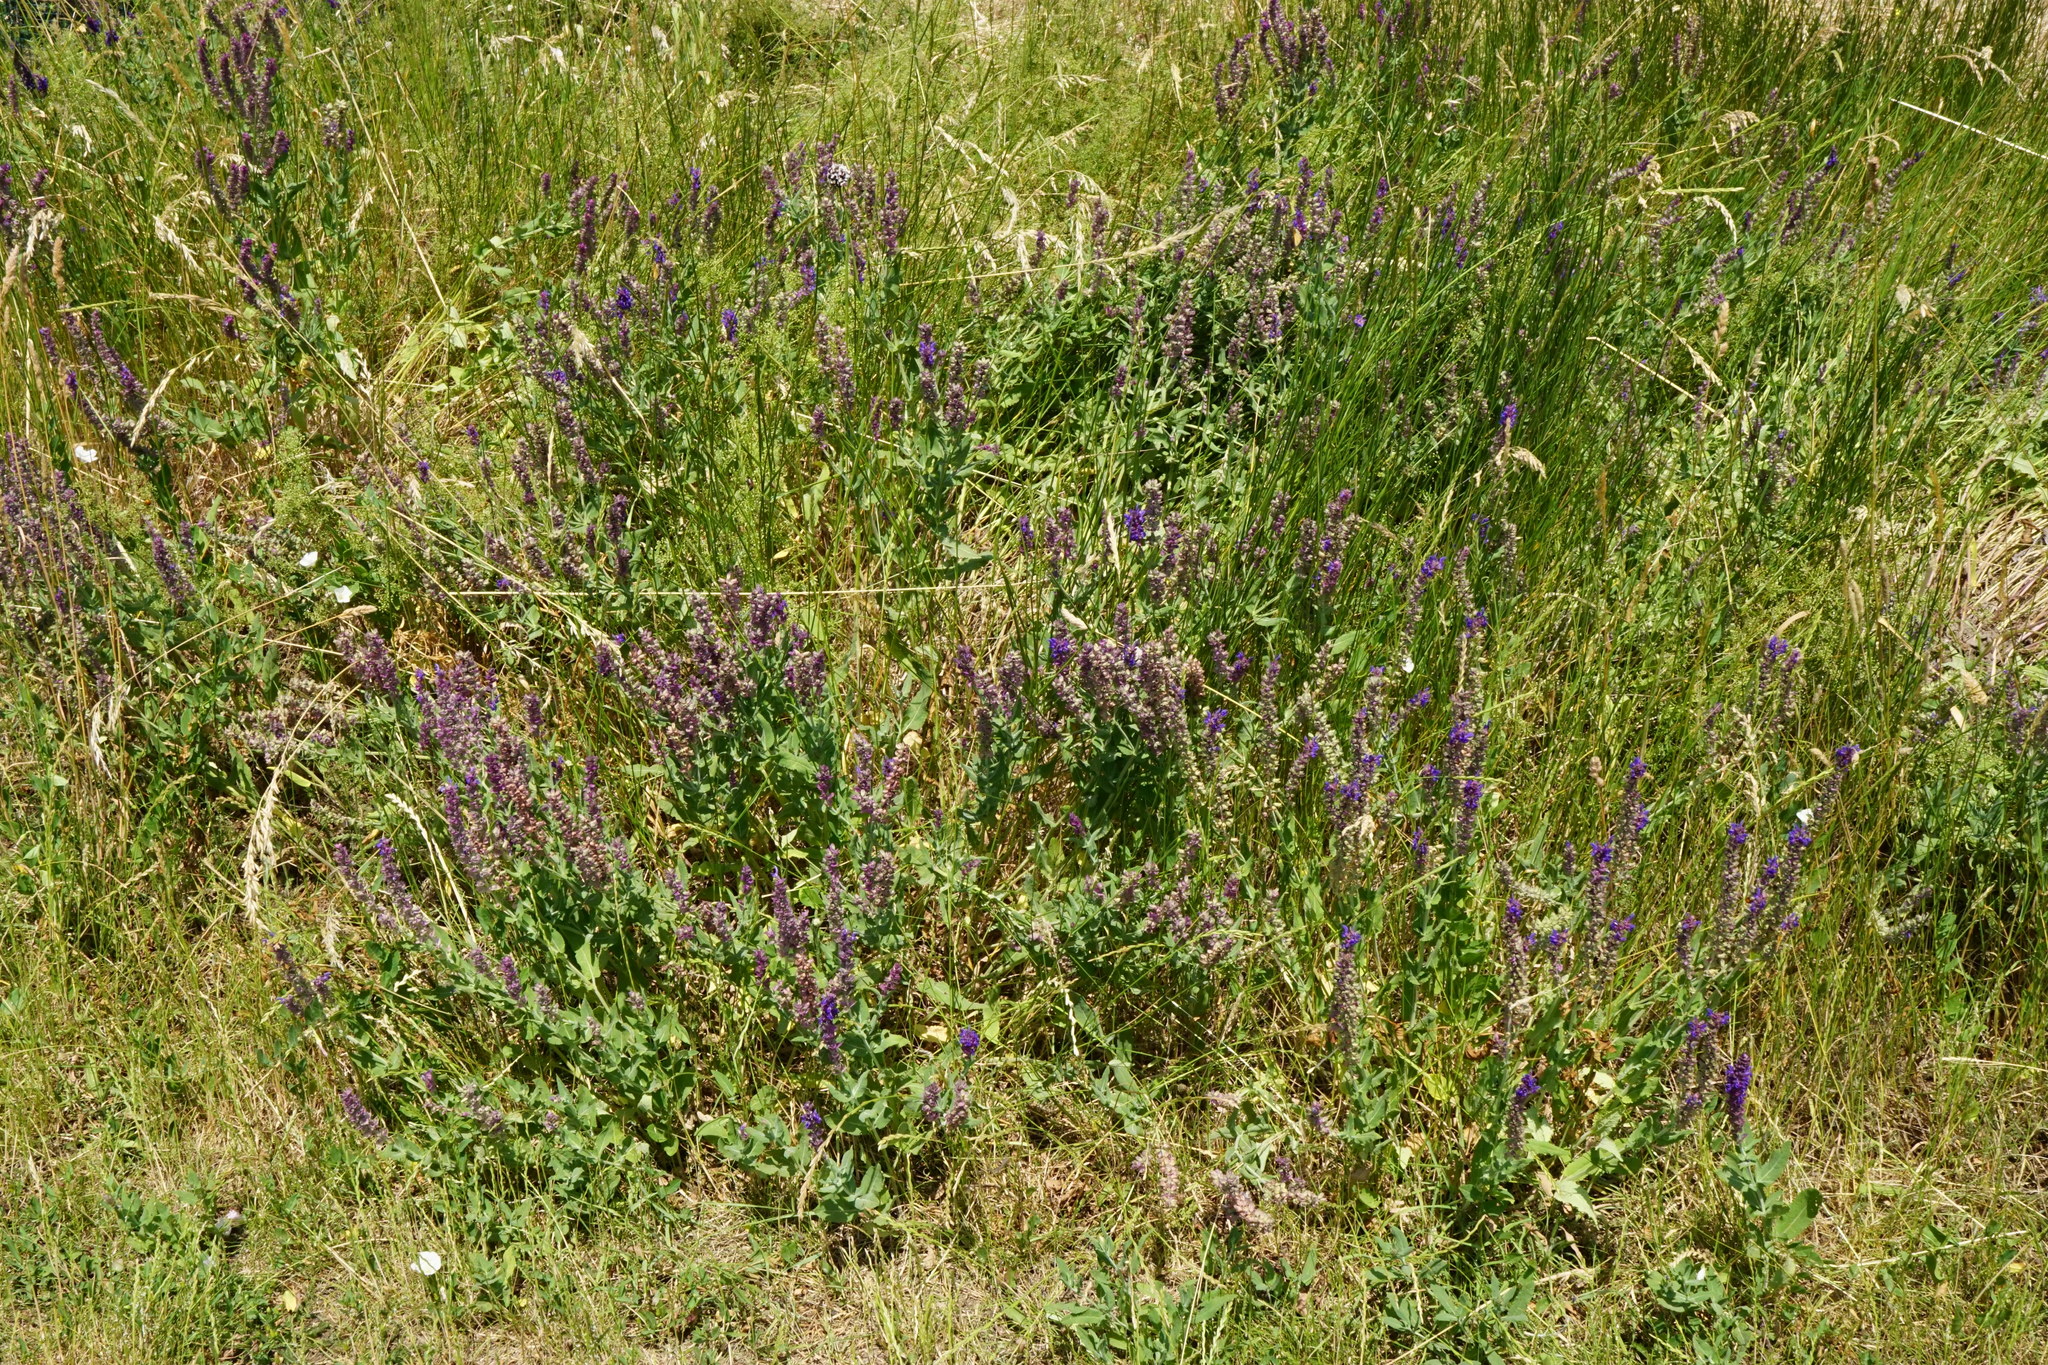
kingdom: Plantae
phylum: Tracheophyta
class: Magnoliopsida
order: Lamiales
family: Lamiaceae
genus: Salvia
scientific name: Salvia nemorosa
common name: Balkan clary
